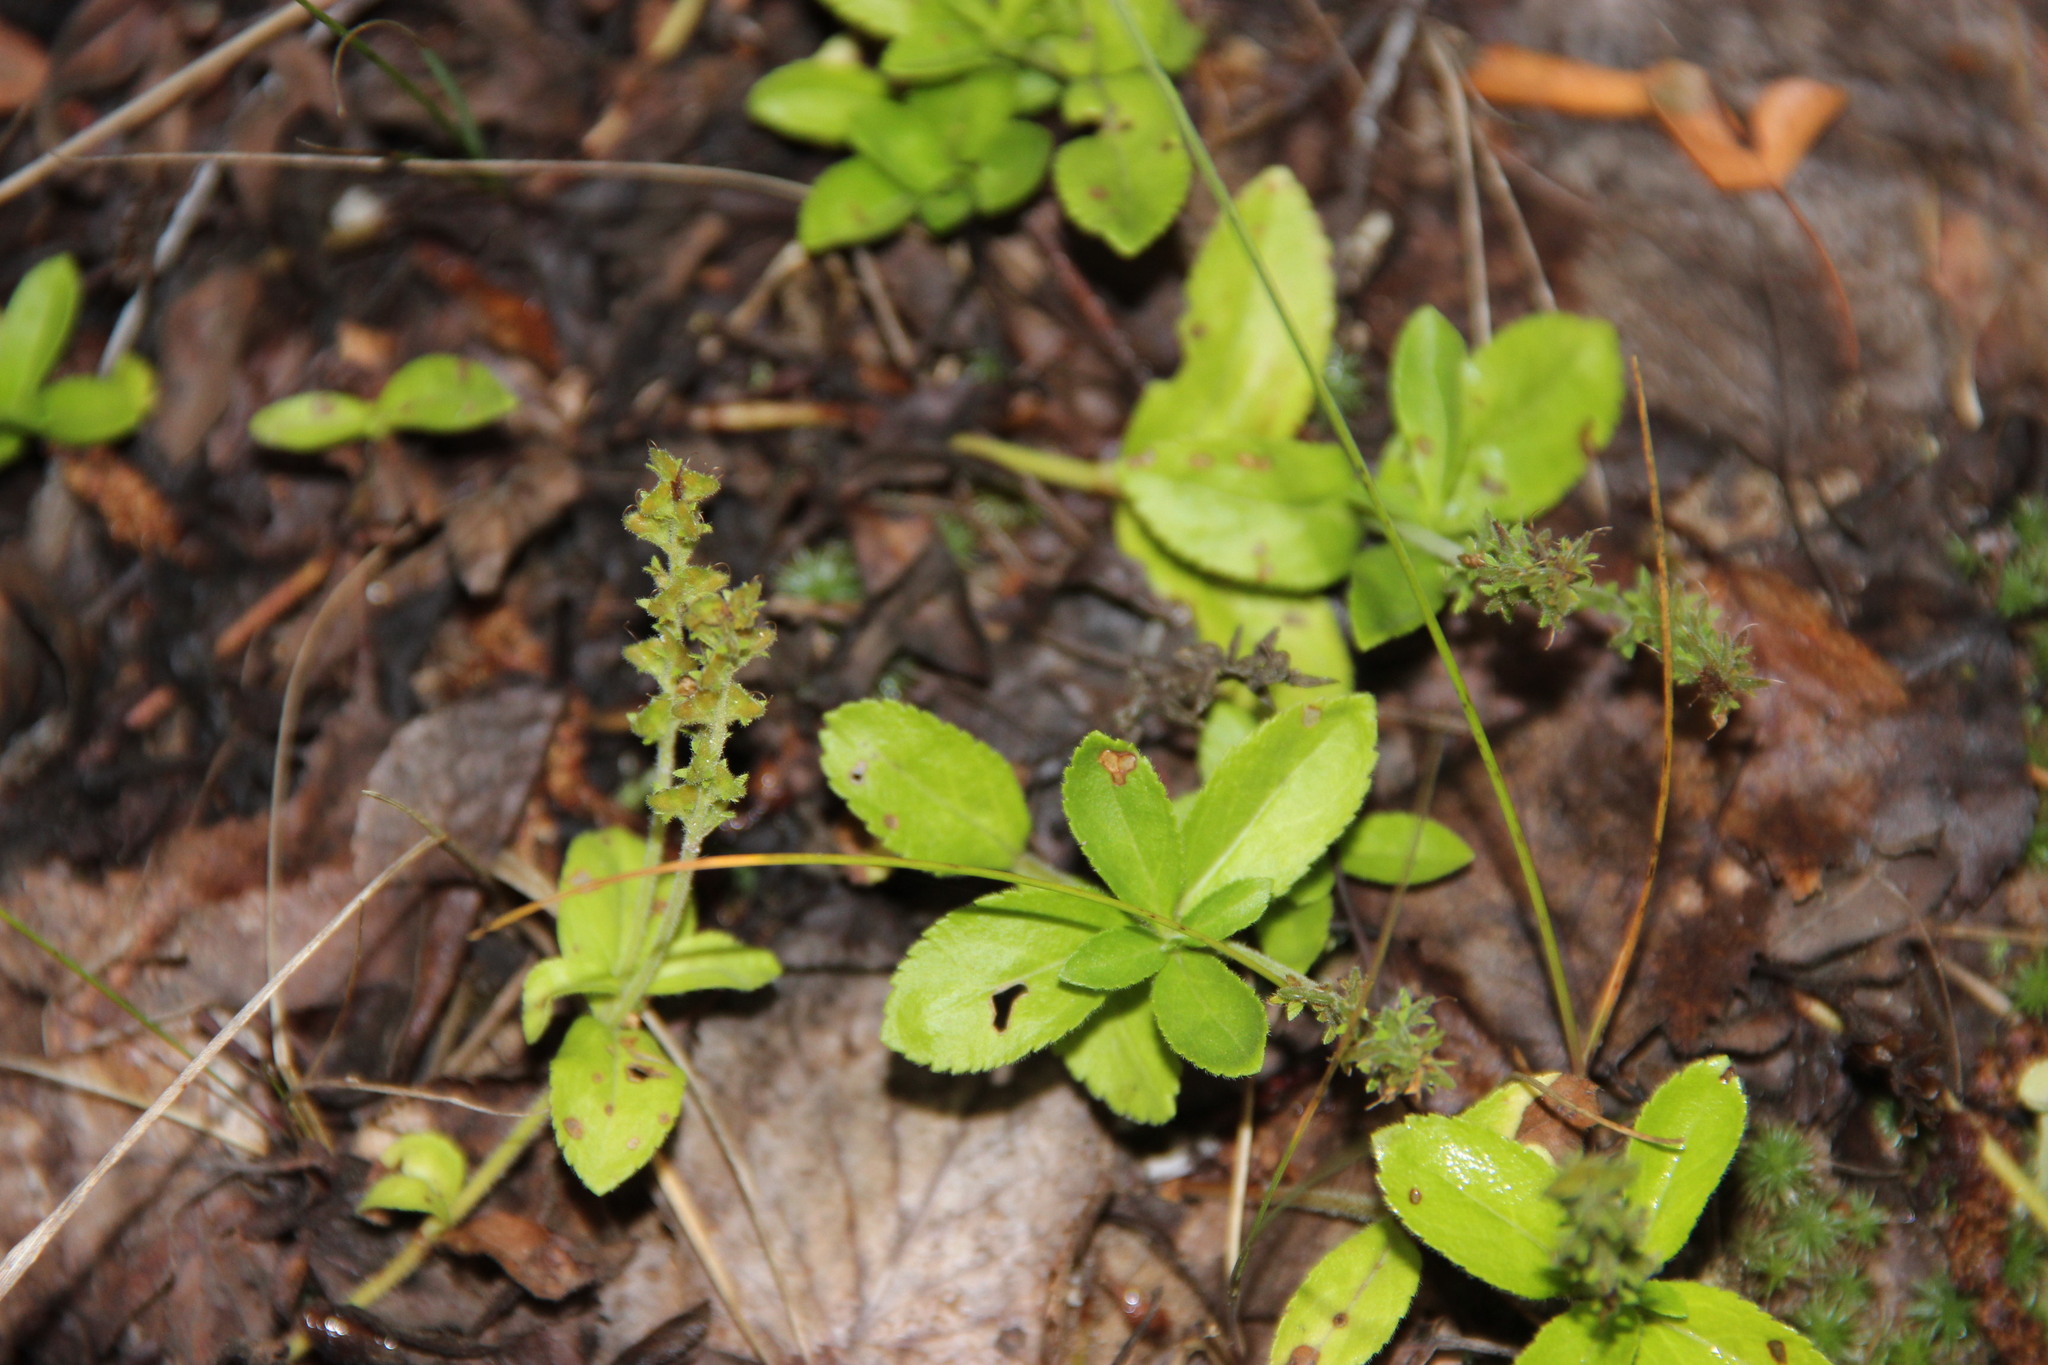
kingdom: Plantae
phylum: Tracheophyta
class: Magnoliopsida
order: Lamiales
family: Plantaginaceae
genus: Veronica
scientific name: Veronica officinalis
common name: Common speedwell
